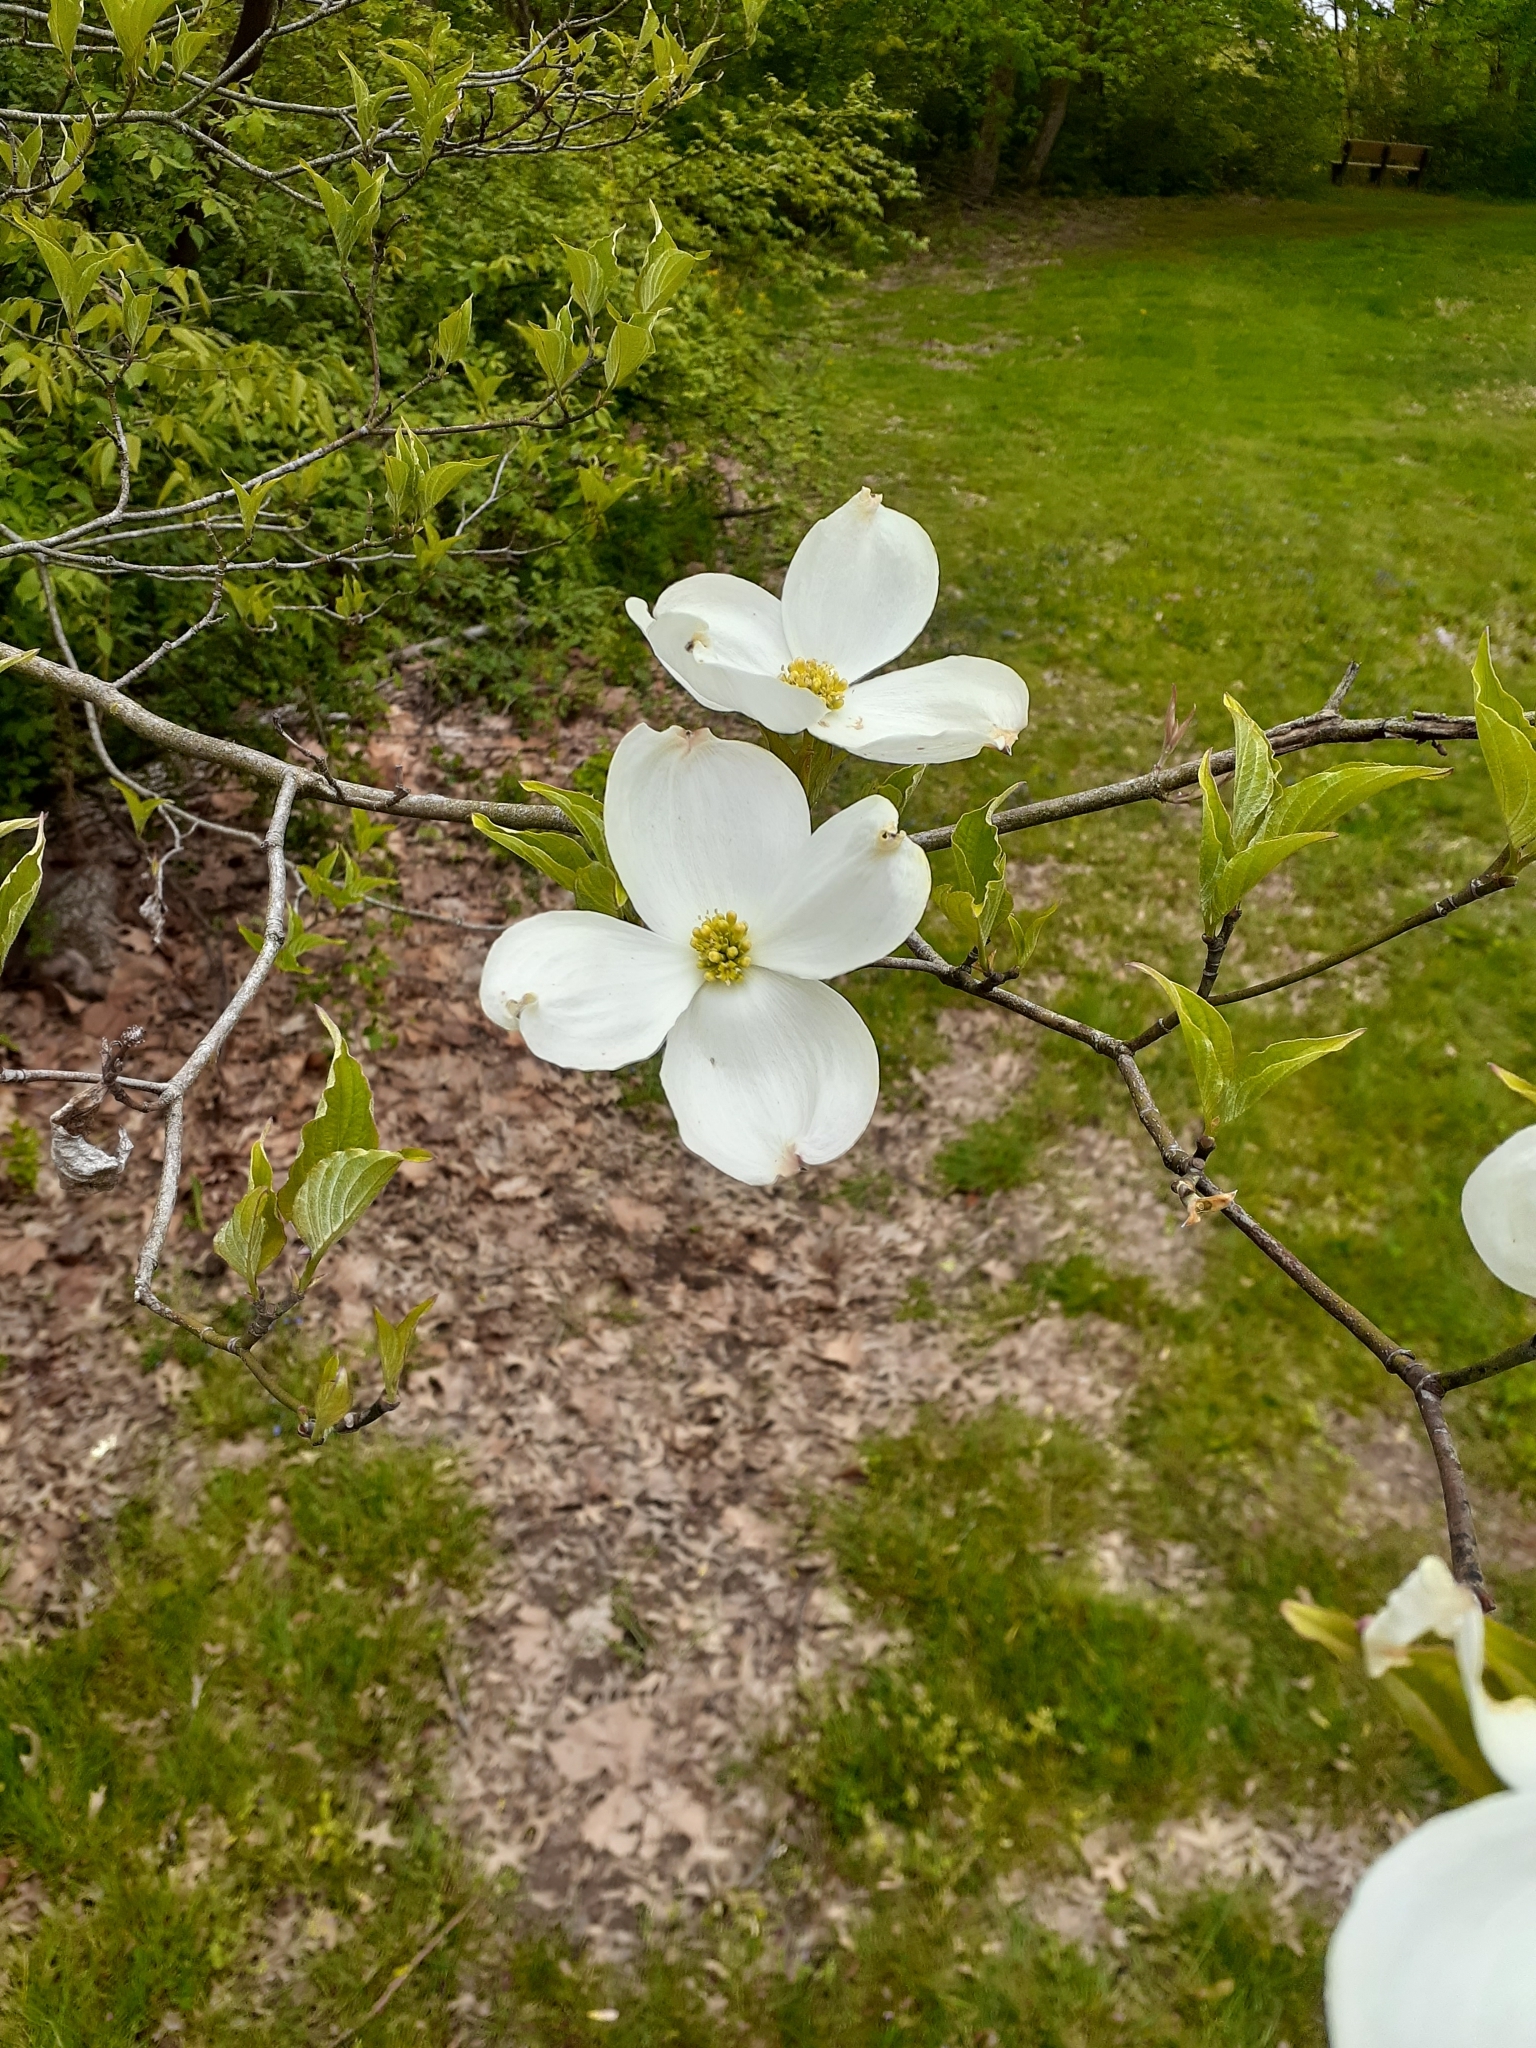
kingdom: Plantae
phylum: Tracheophyta
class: Magnoliopsida
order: Cornales
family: Cornaceae
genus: Cornus
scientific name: Cornus florida
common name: Flowering dogwood
